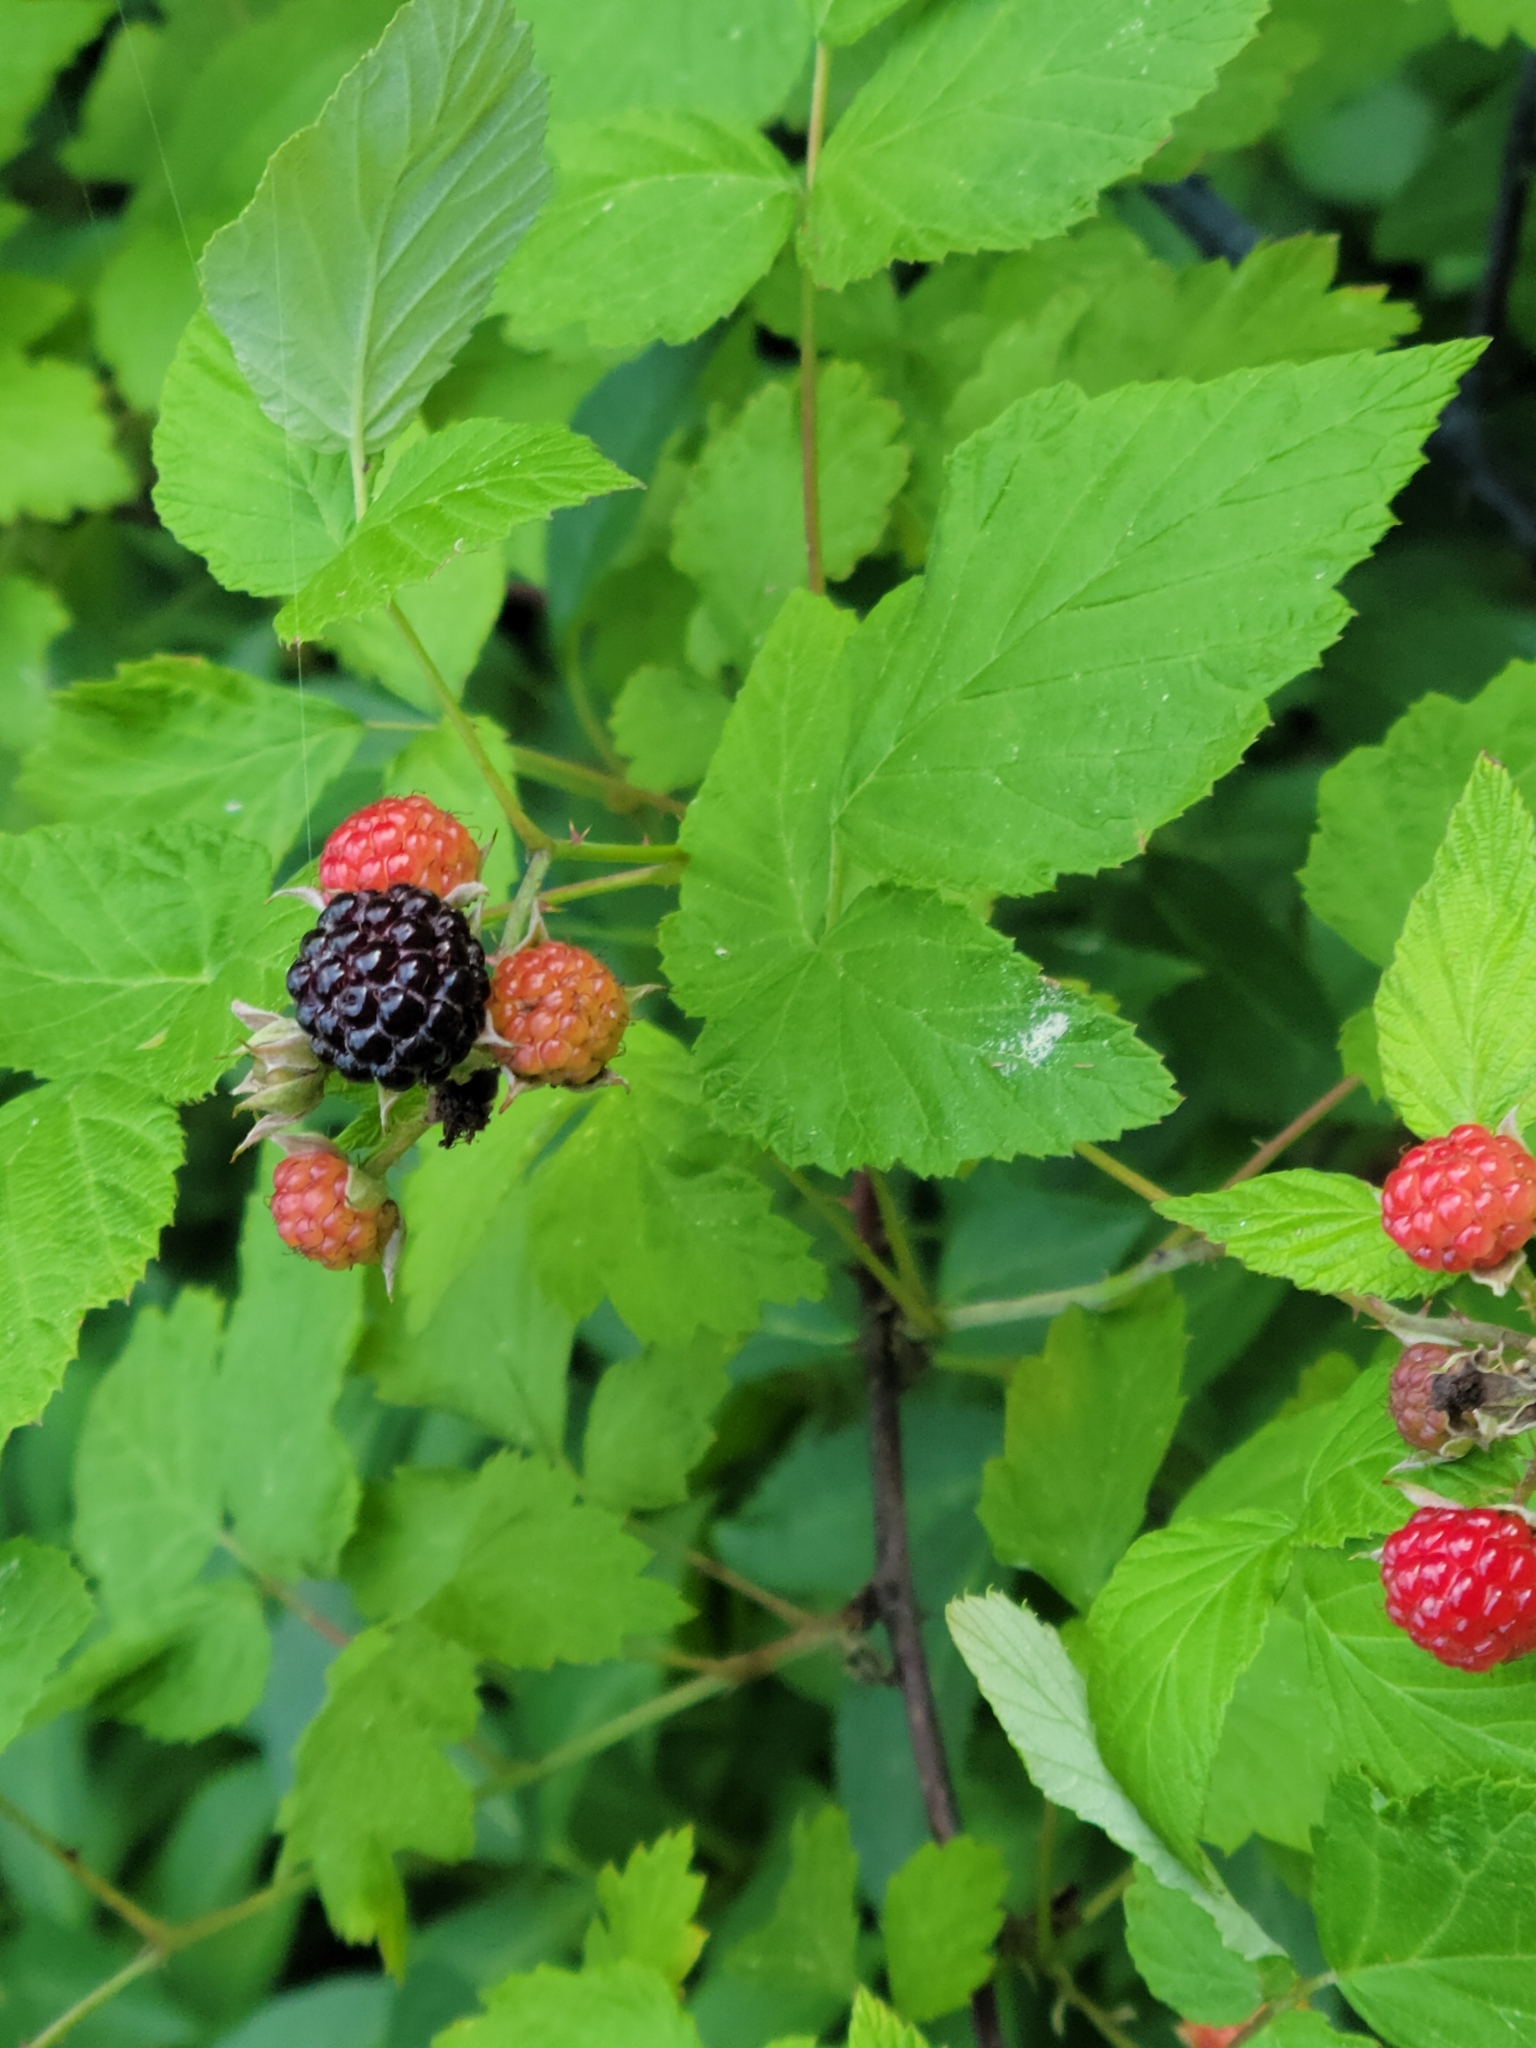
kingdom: Plantae
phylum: Tracheophyta
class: Magnoliopsida
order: Rosales
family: Rosaceae
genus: Rubus
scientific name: Rubus occidentalis
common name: Black raspberry
